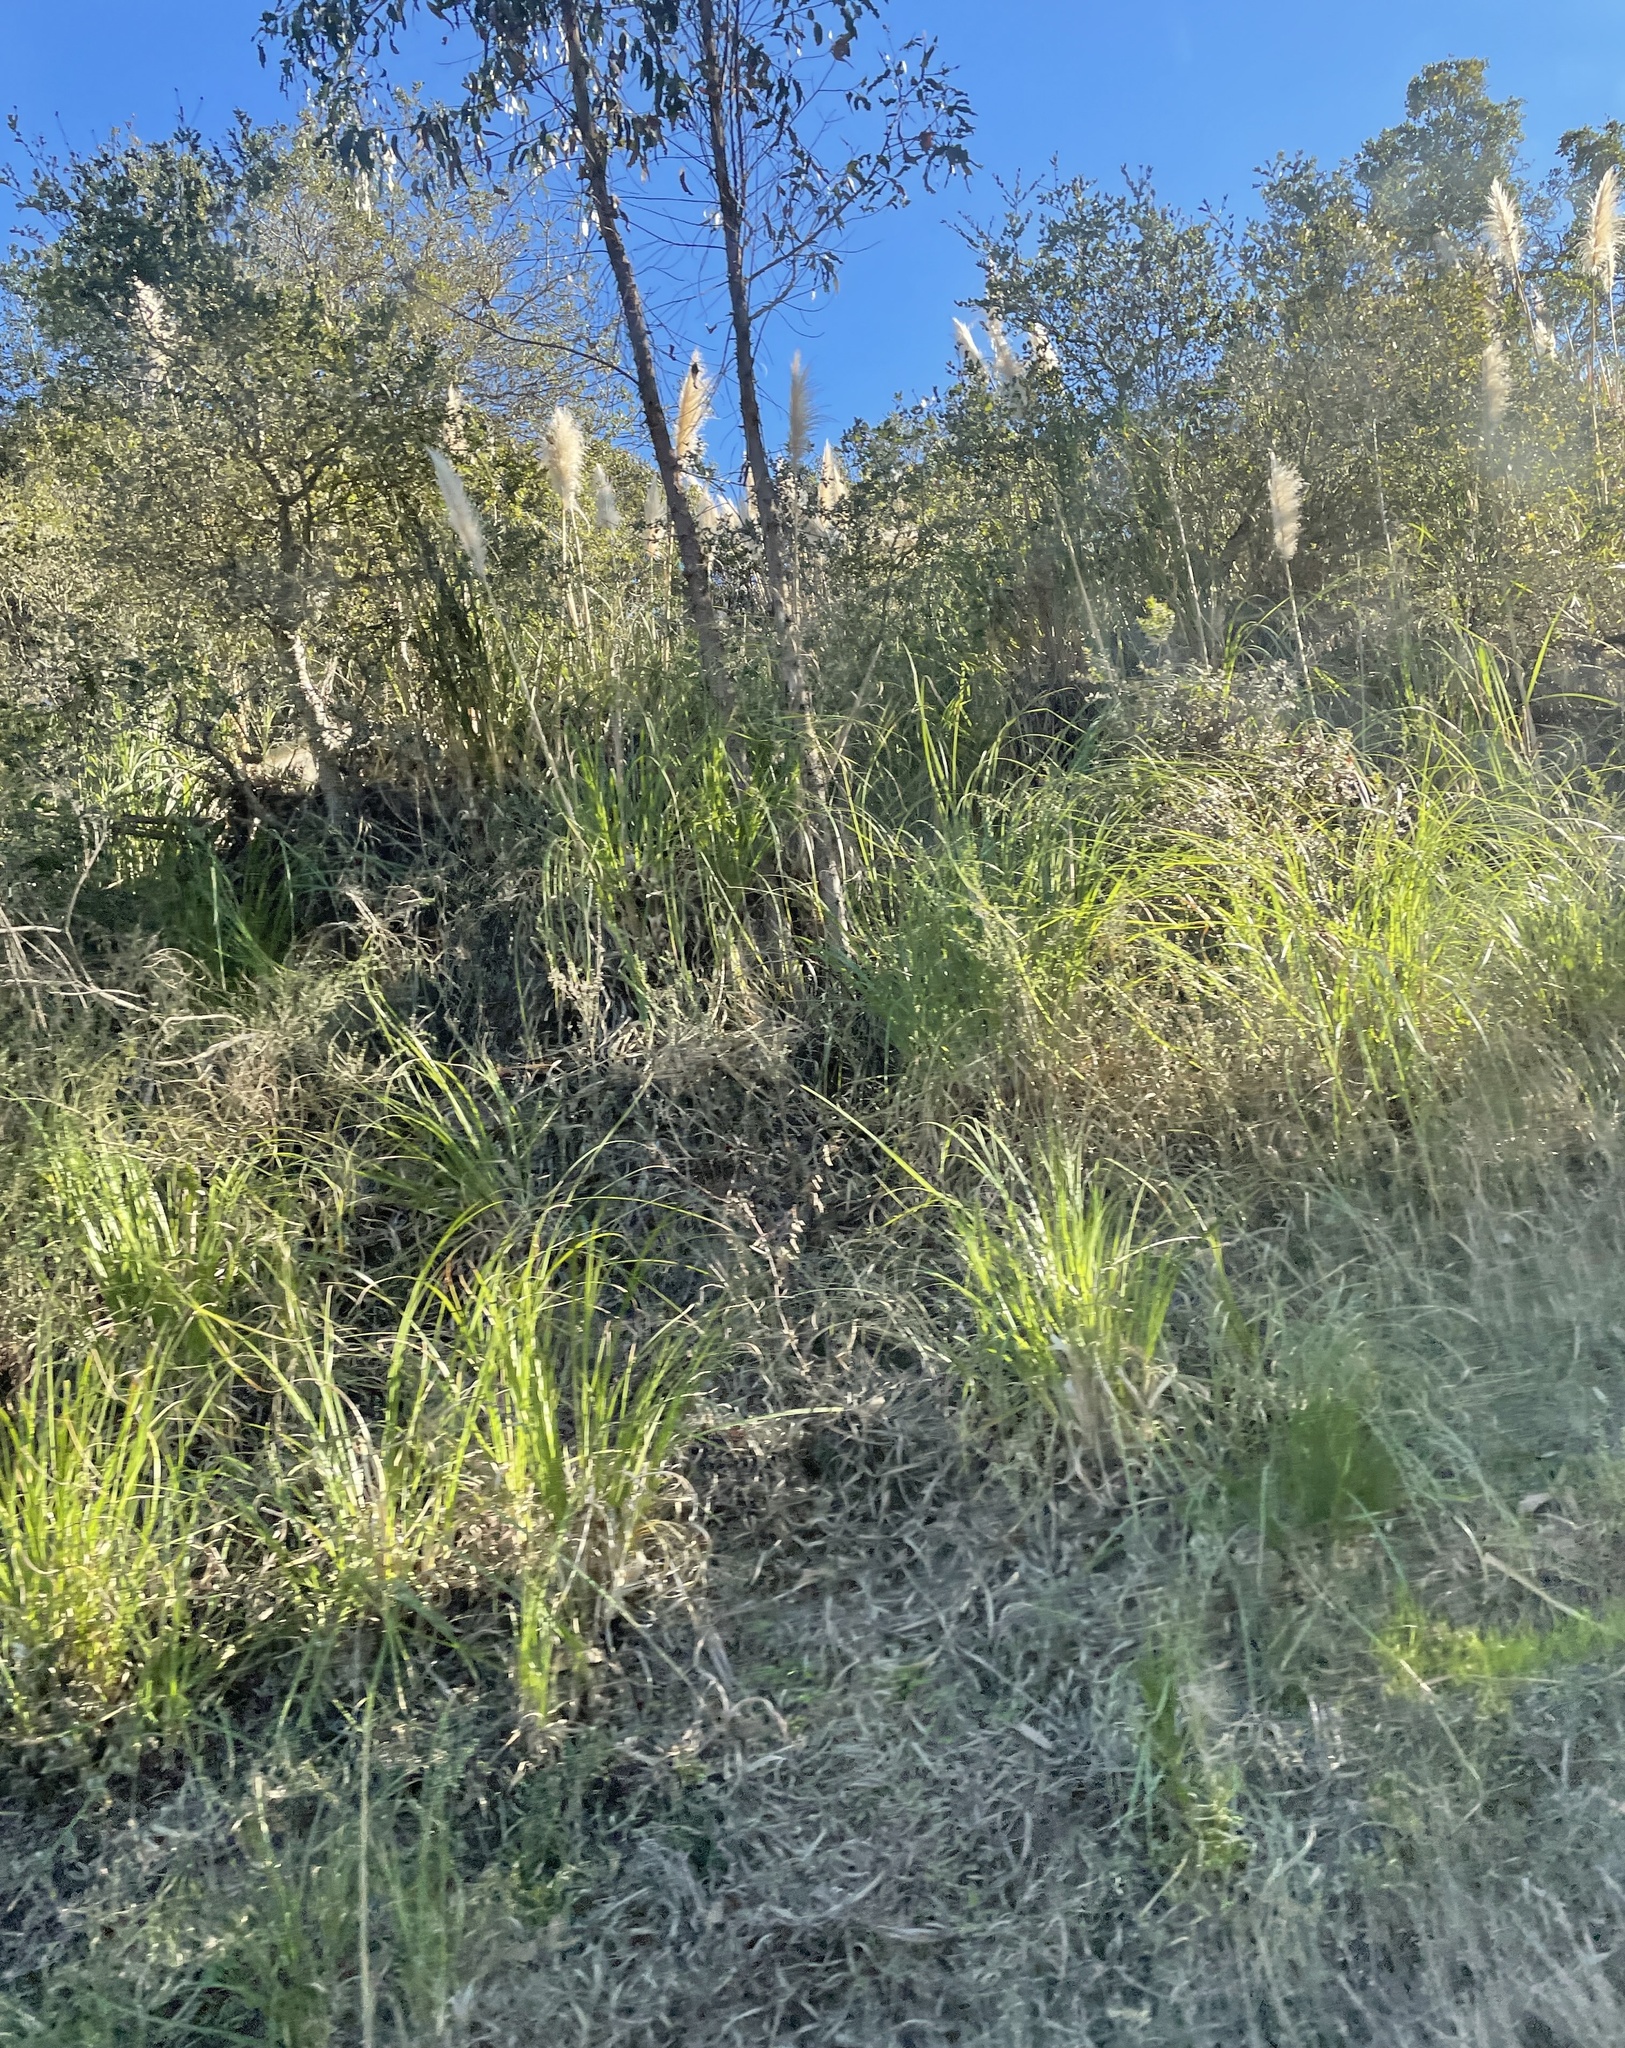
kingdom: Plantae
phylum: Tracheophyta
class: Liliopsida
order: Poales
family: Poaceae
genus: Cortaderia
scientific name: Cortaderia selloana
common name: Uruguayan pampas grass
